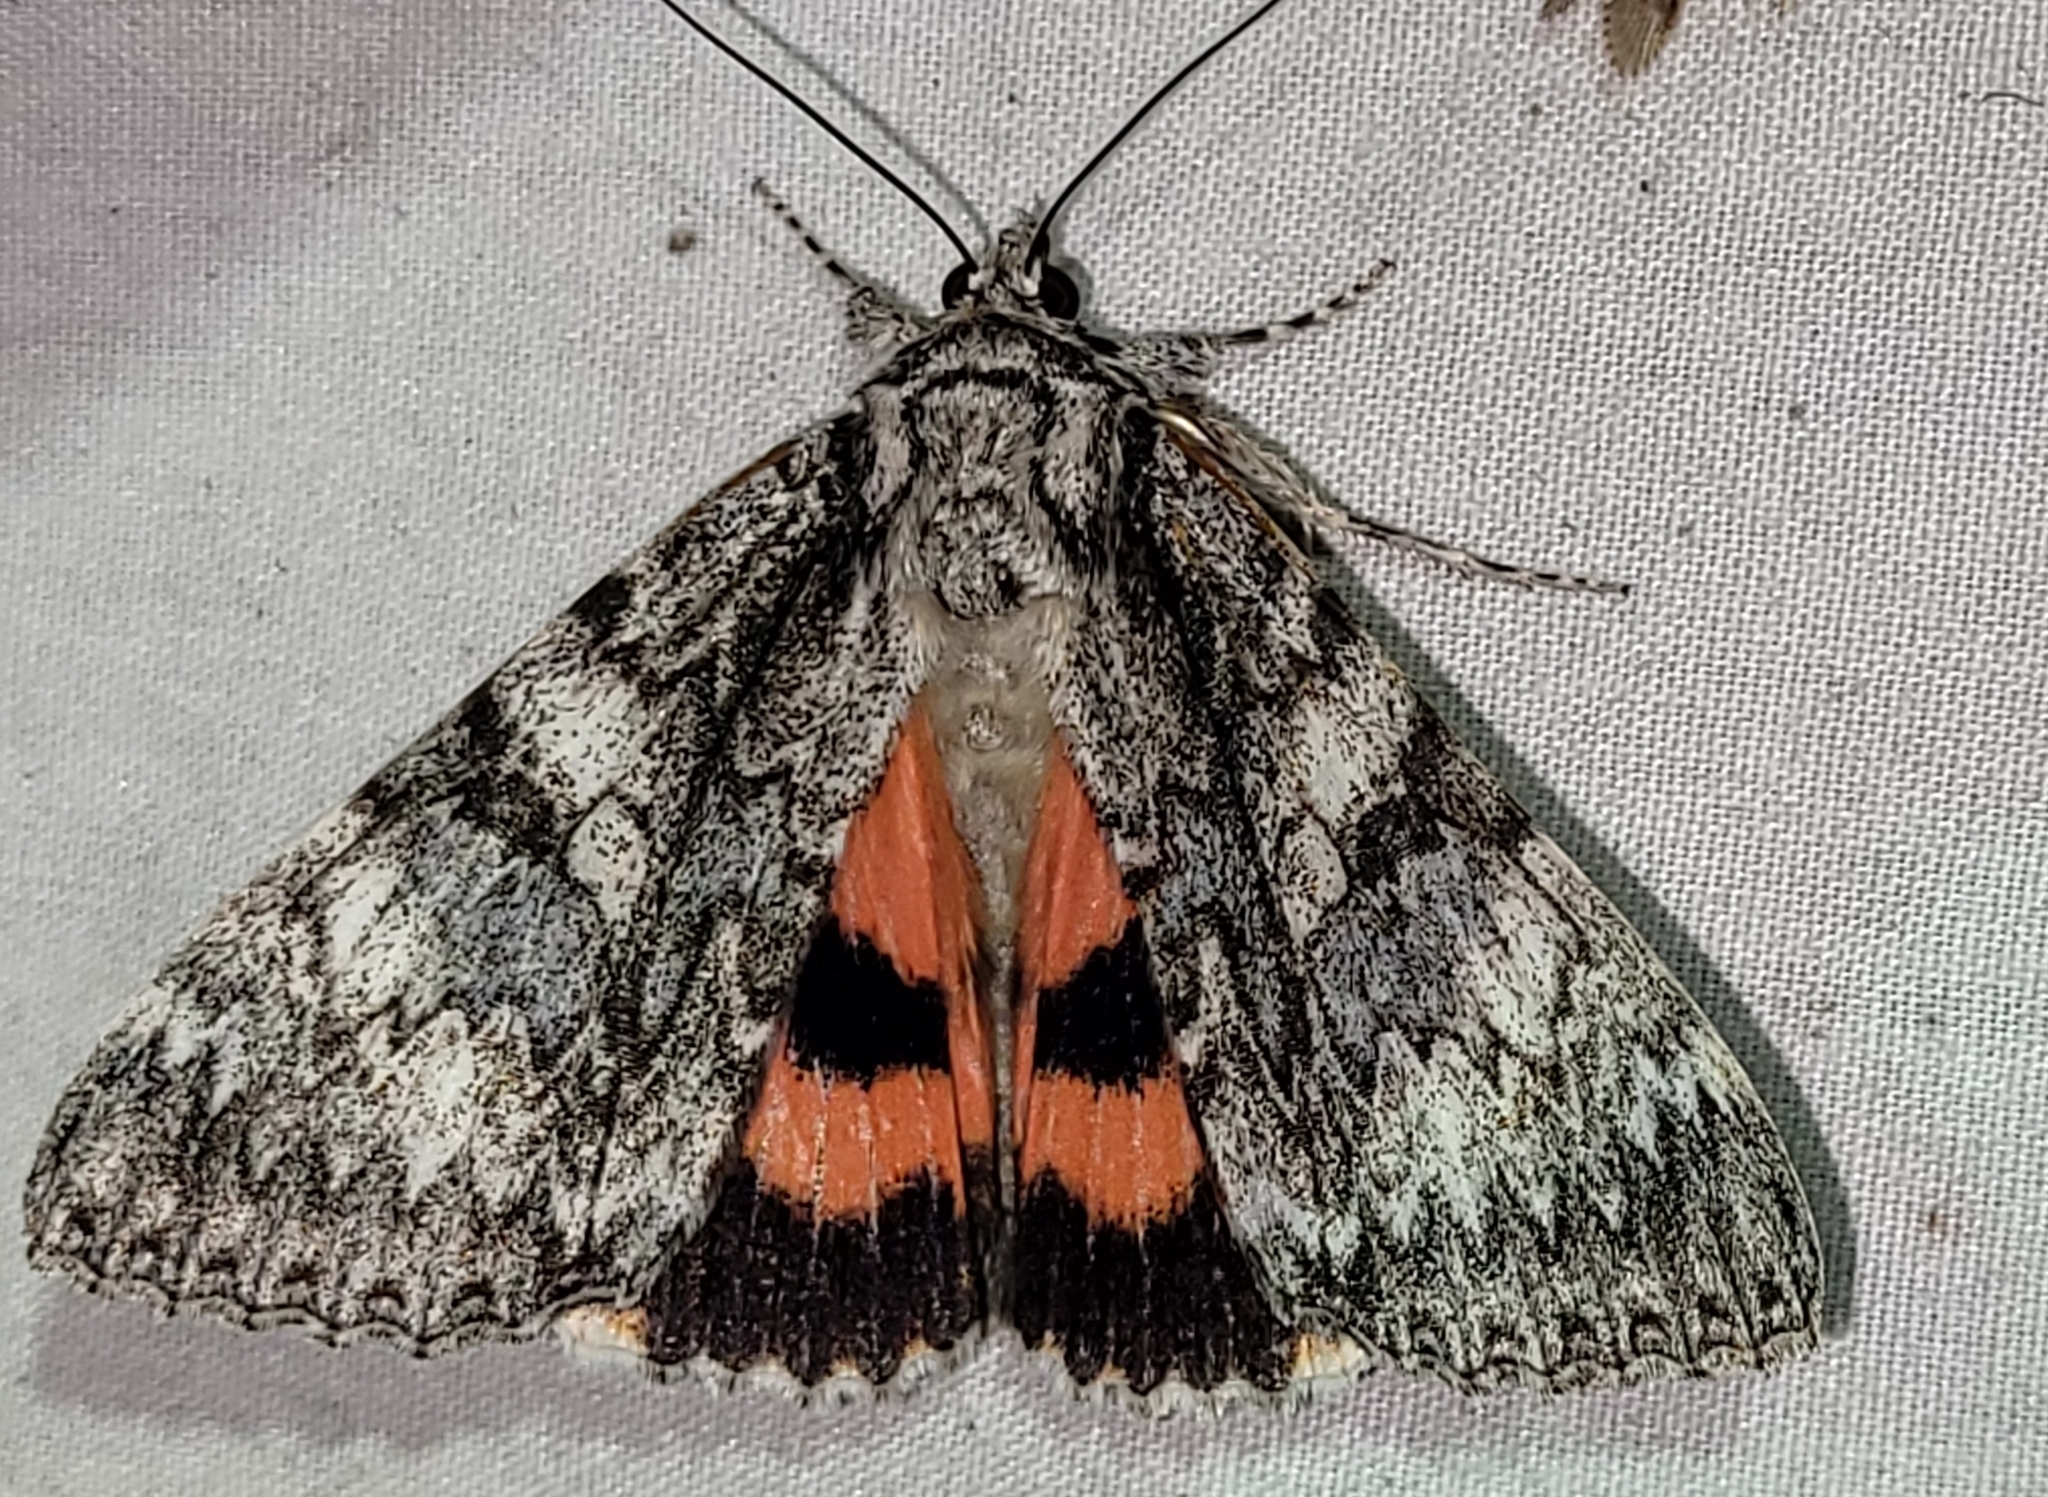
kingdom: Animalia
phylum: Arthropoda
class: Insecta
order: Lepidoptera
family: Erebidae
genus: Catocala
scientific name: Catocala semirelicta
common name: Semirelict underwing moth
